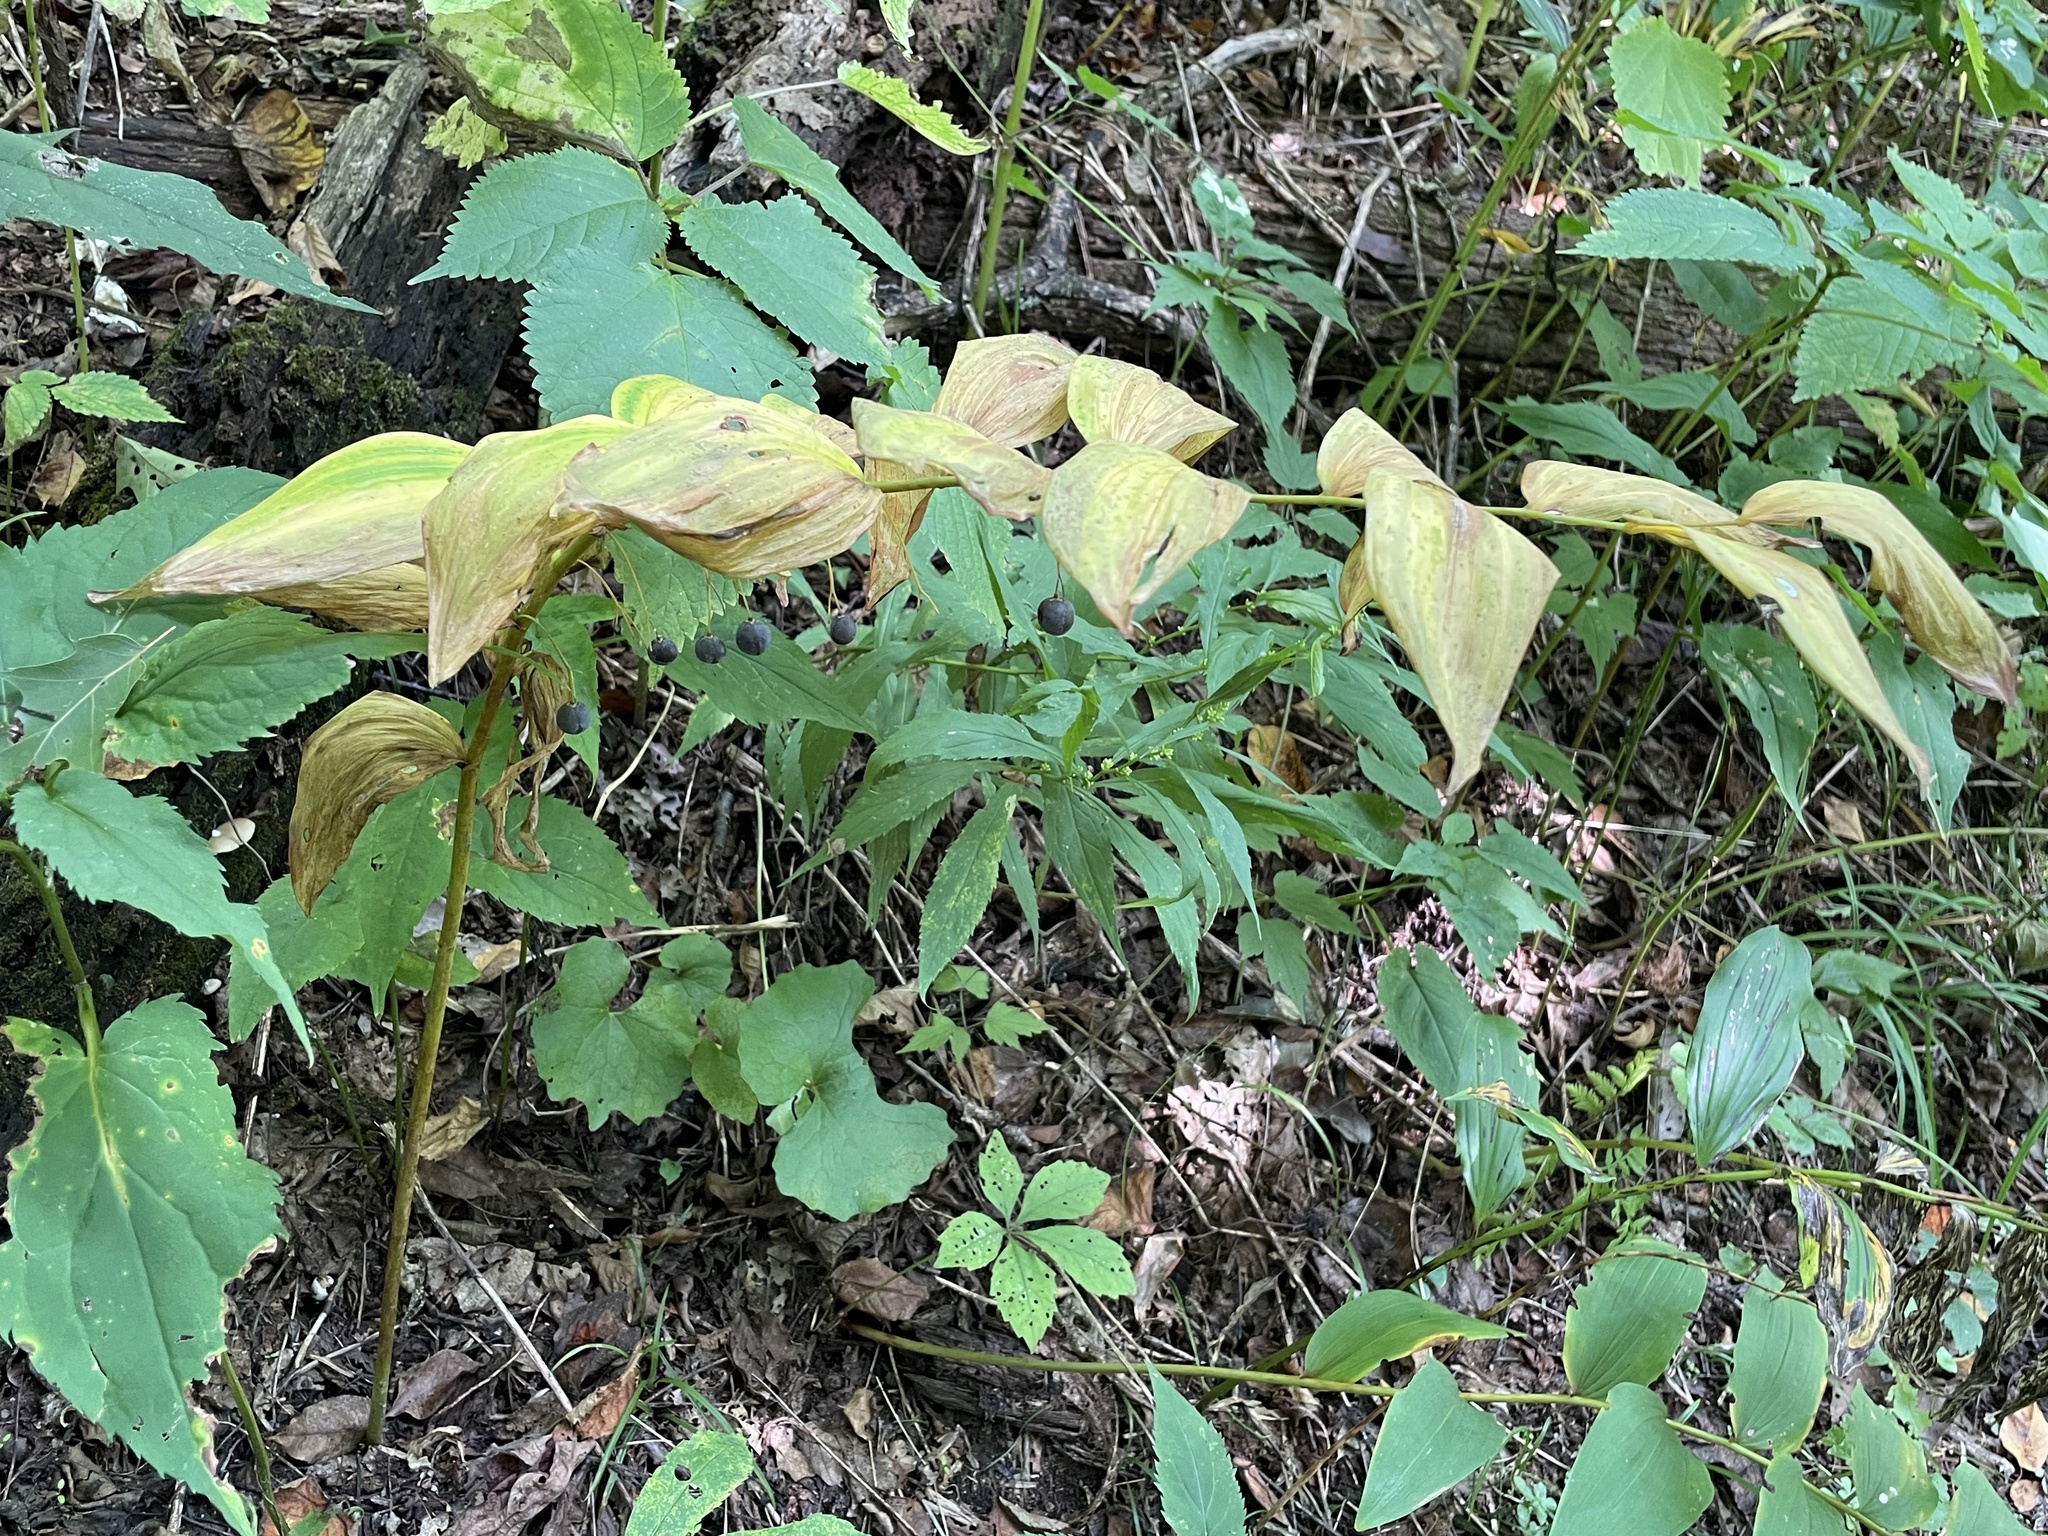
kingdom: Plantae
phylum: Tracheophyta
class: Liliopsida
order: Asparagales
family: Asparagaceae
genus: Polygonatum
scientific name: Polygonatum biflorum
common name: American solomon's-seal
